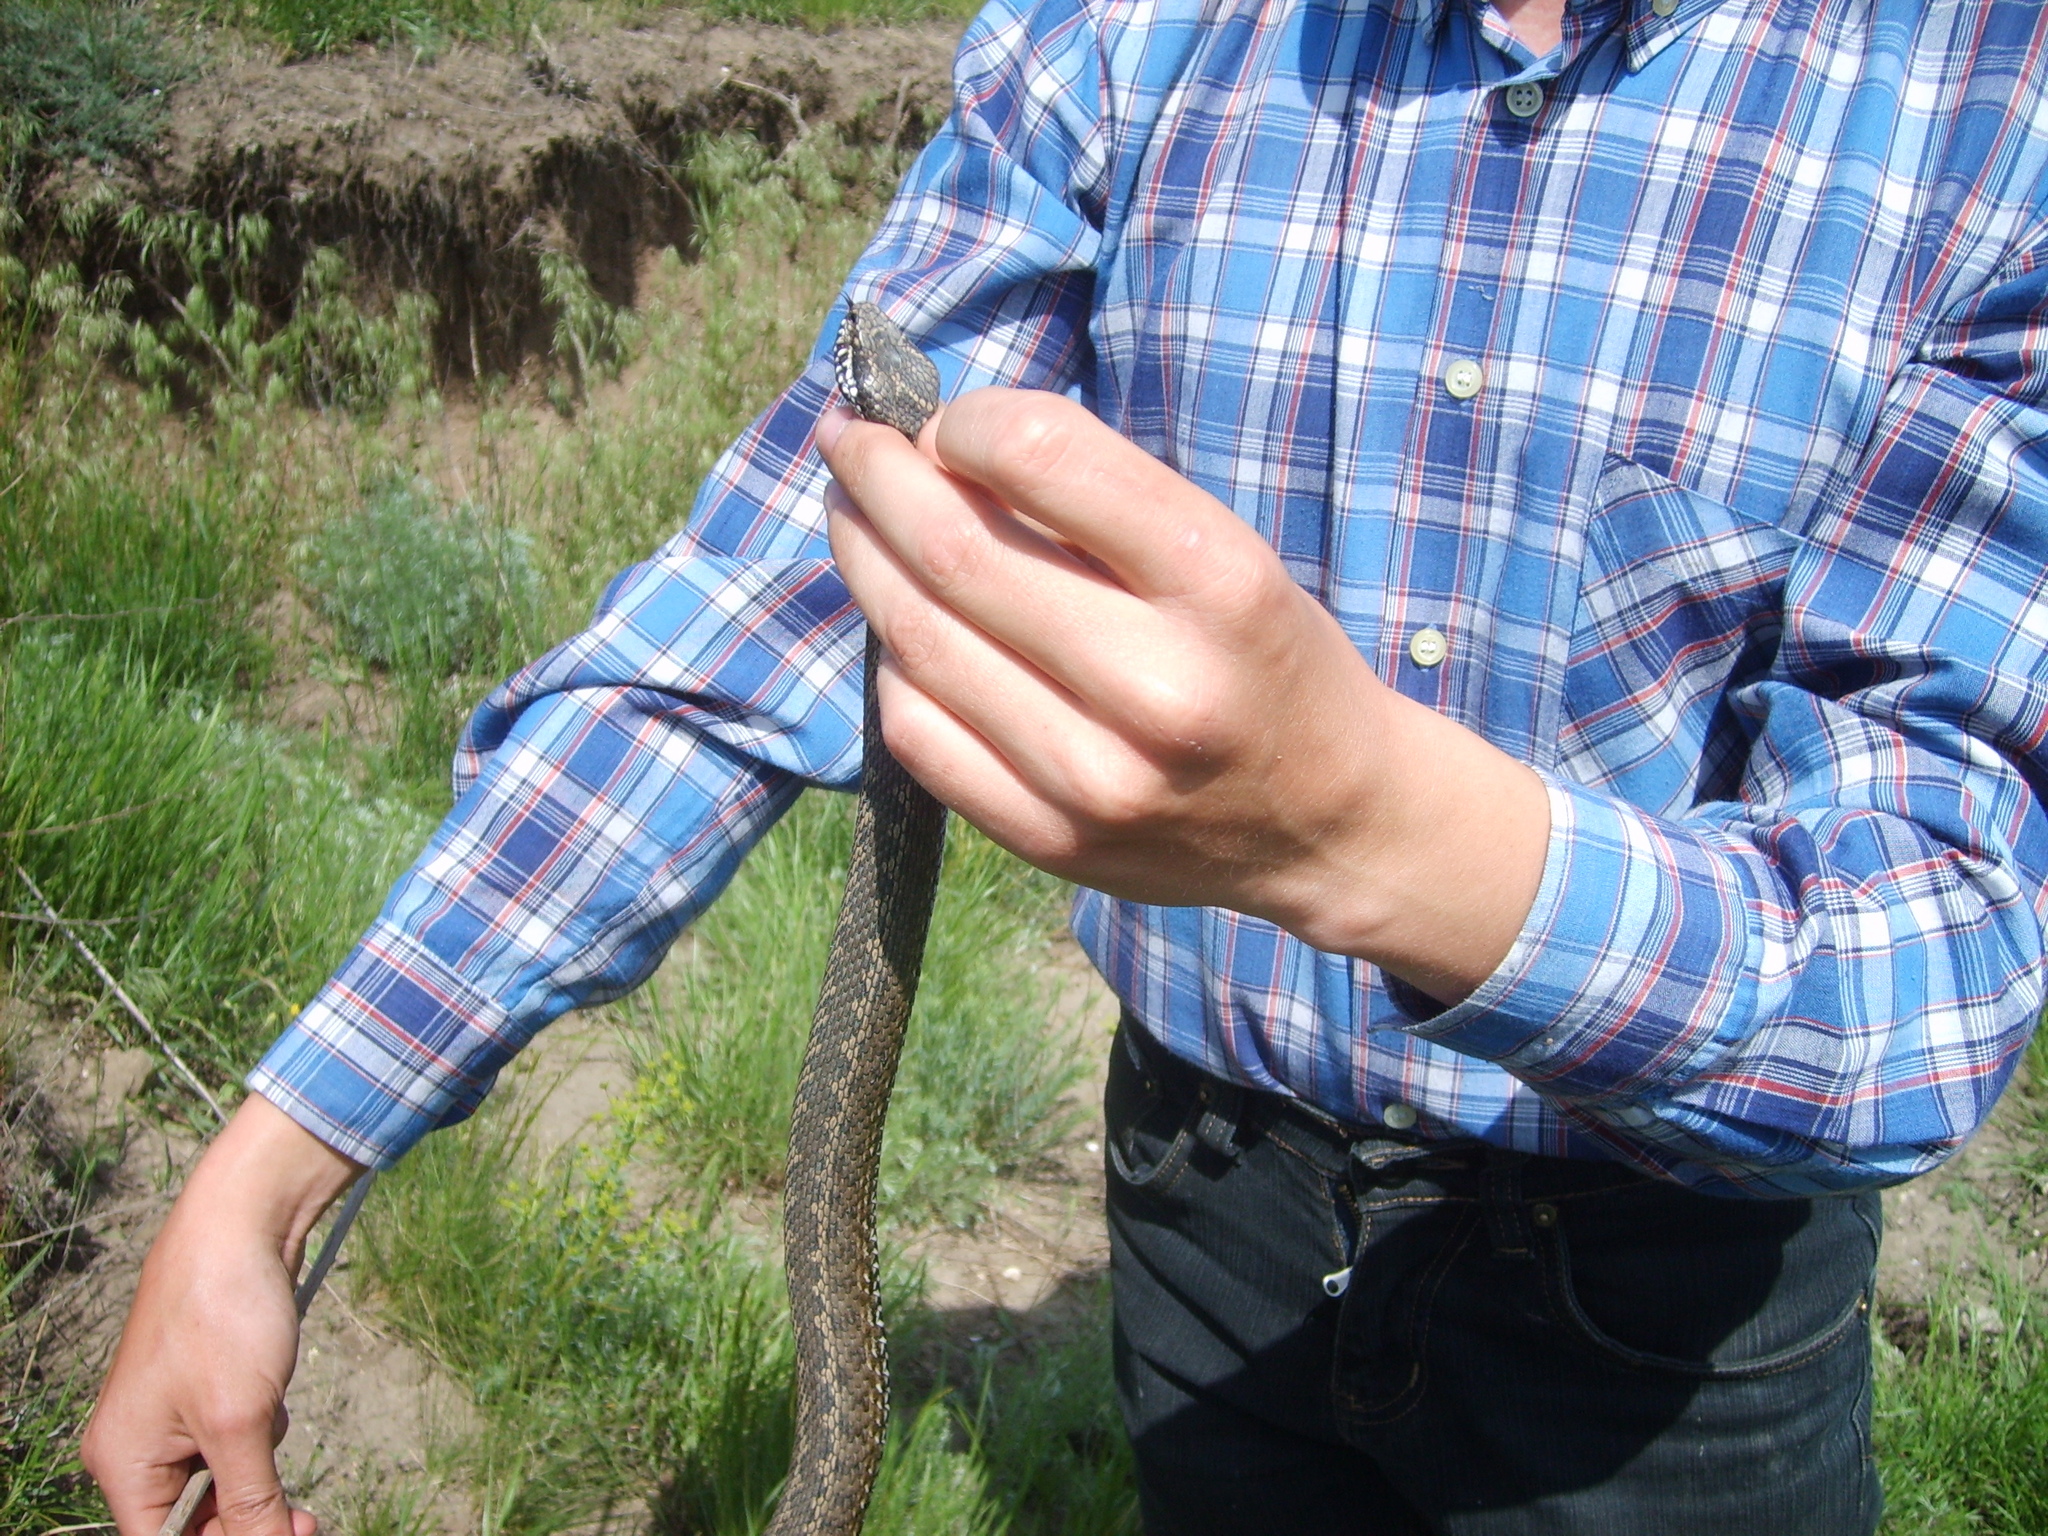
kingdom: Animalia
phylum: Chordata
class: Squamata
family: Viperidae
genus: Vipera
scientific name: Vipera renardi
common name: Eastern steppe viper
